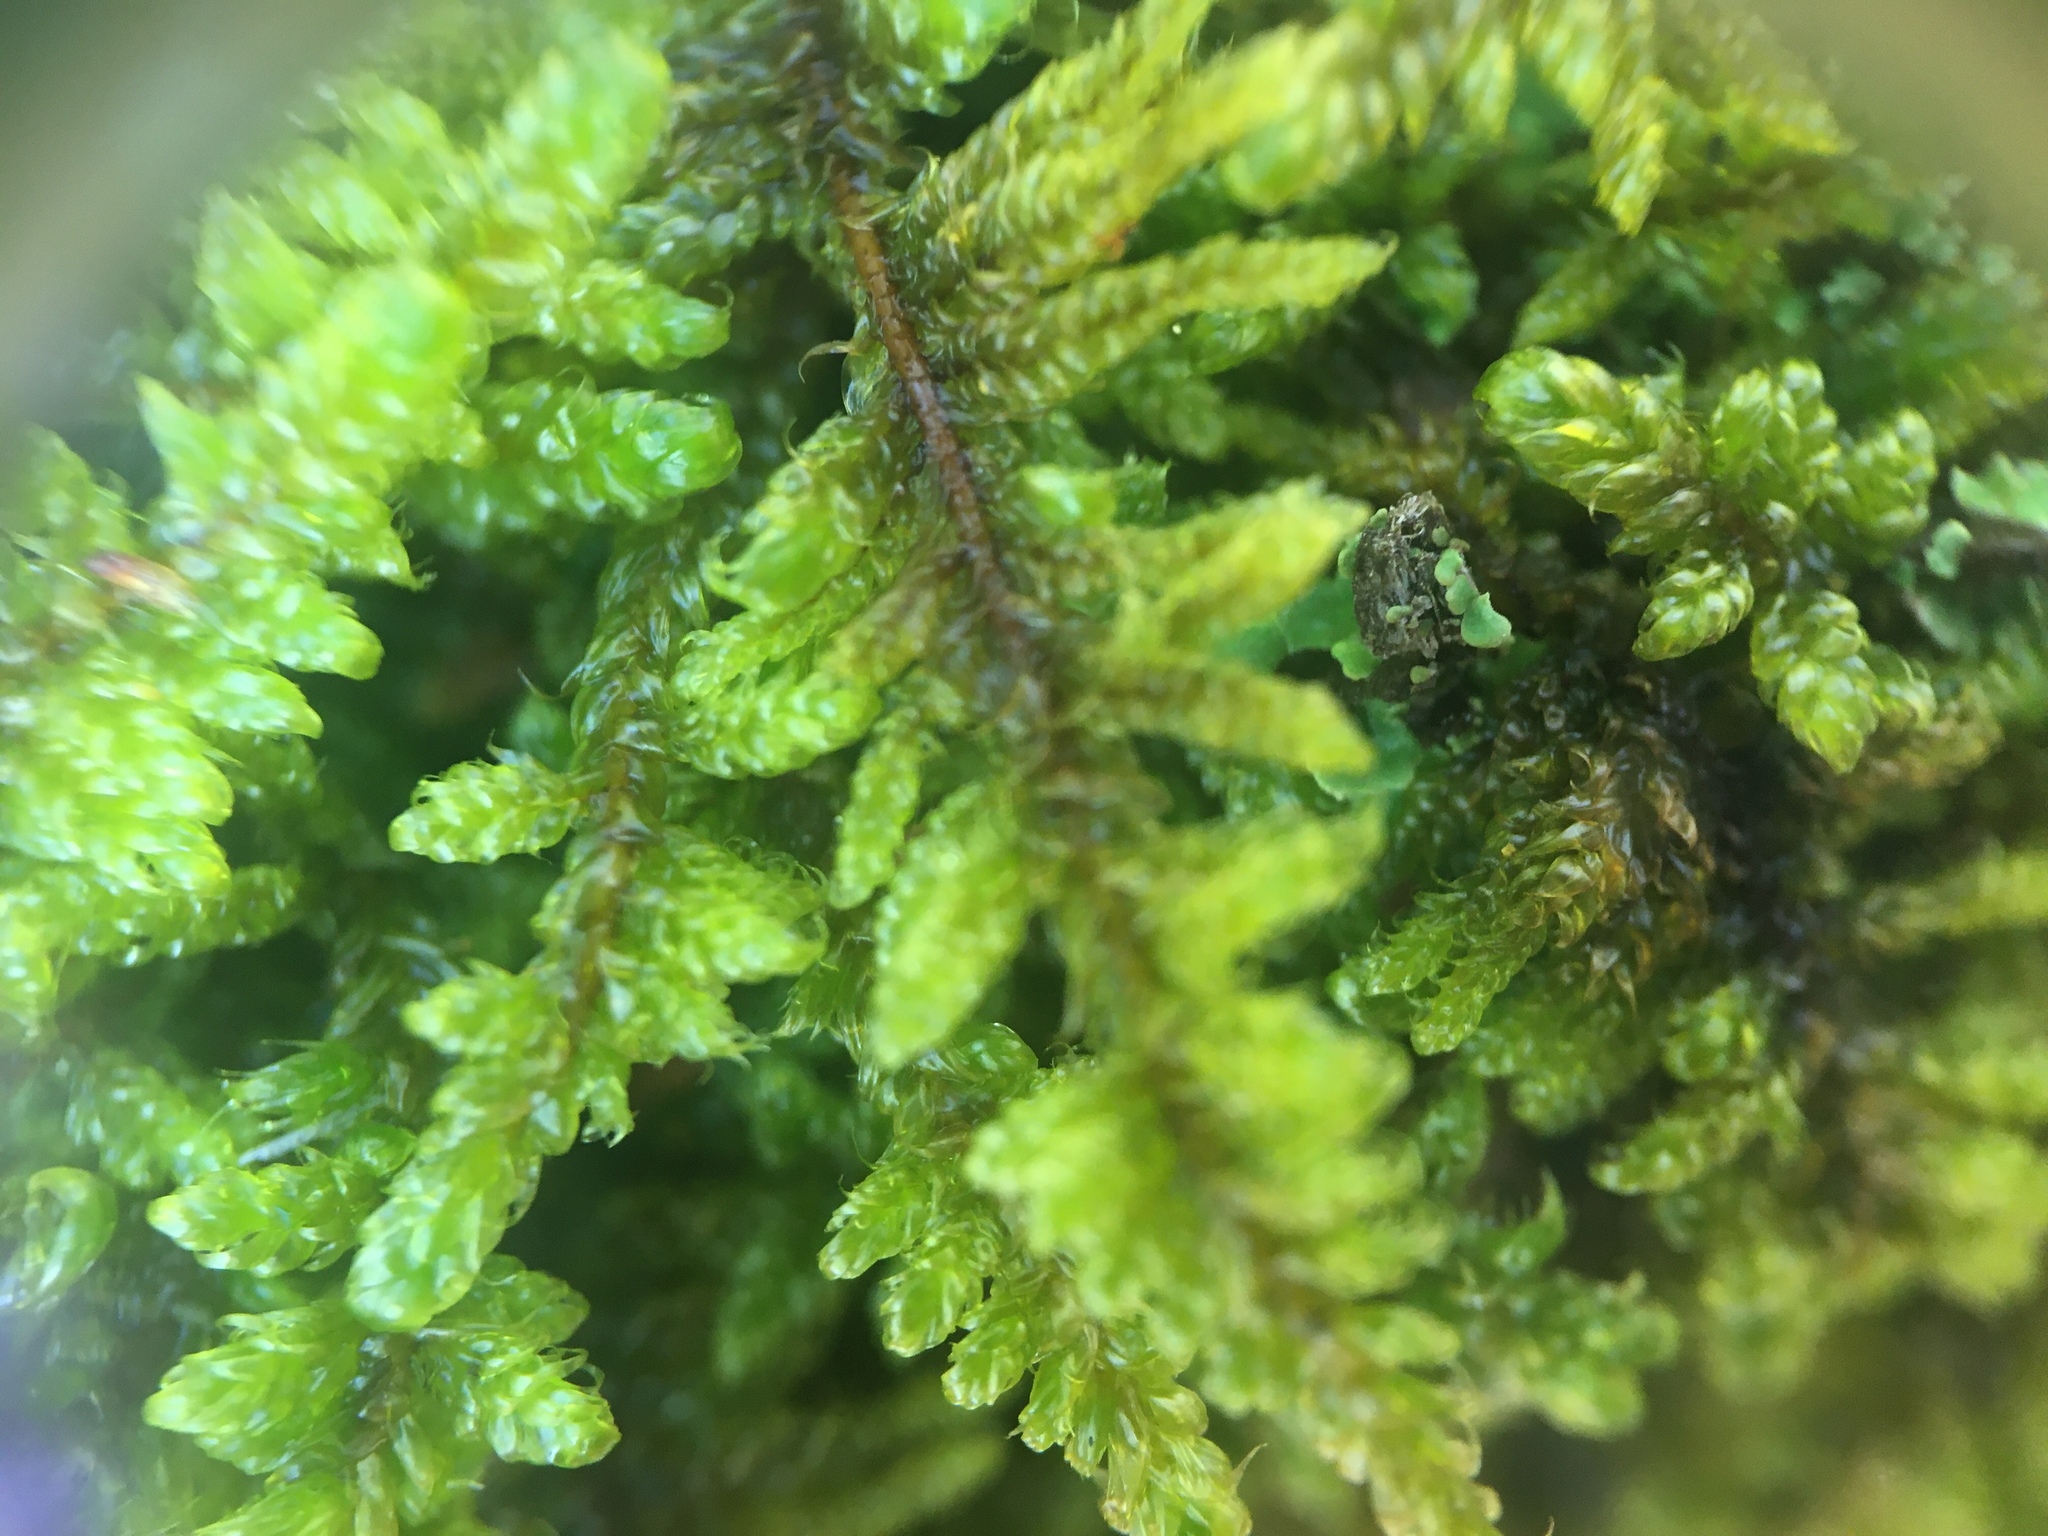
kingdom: Plantae
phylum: Bryophyta
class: Bryopsida
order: Hypnales
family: Callicladiaceae
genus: Callicladium
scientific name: Callicladium imponens
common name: Brocade moss
